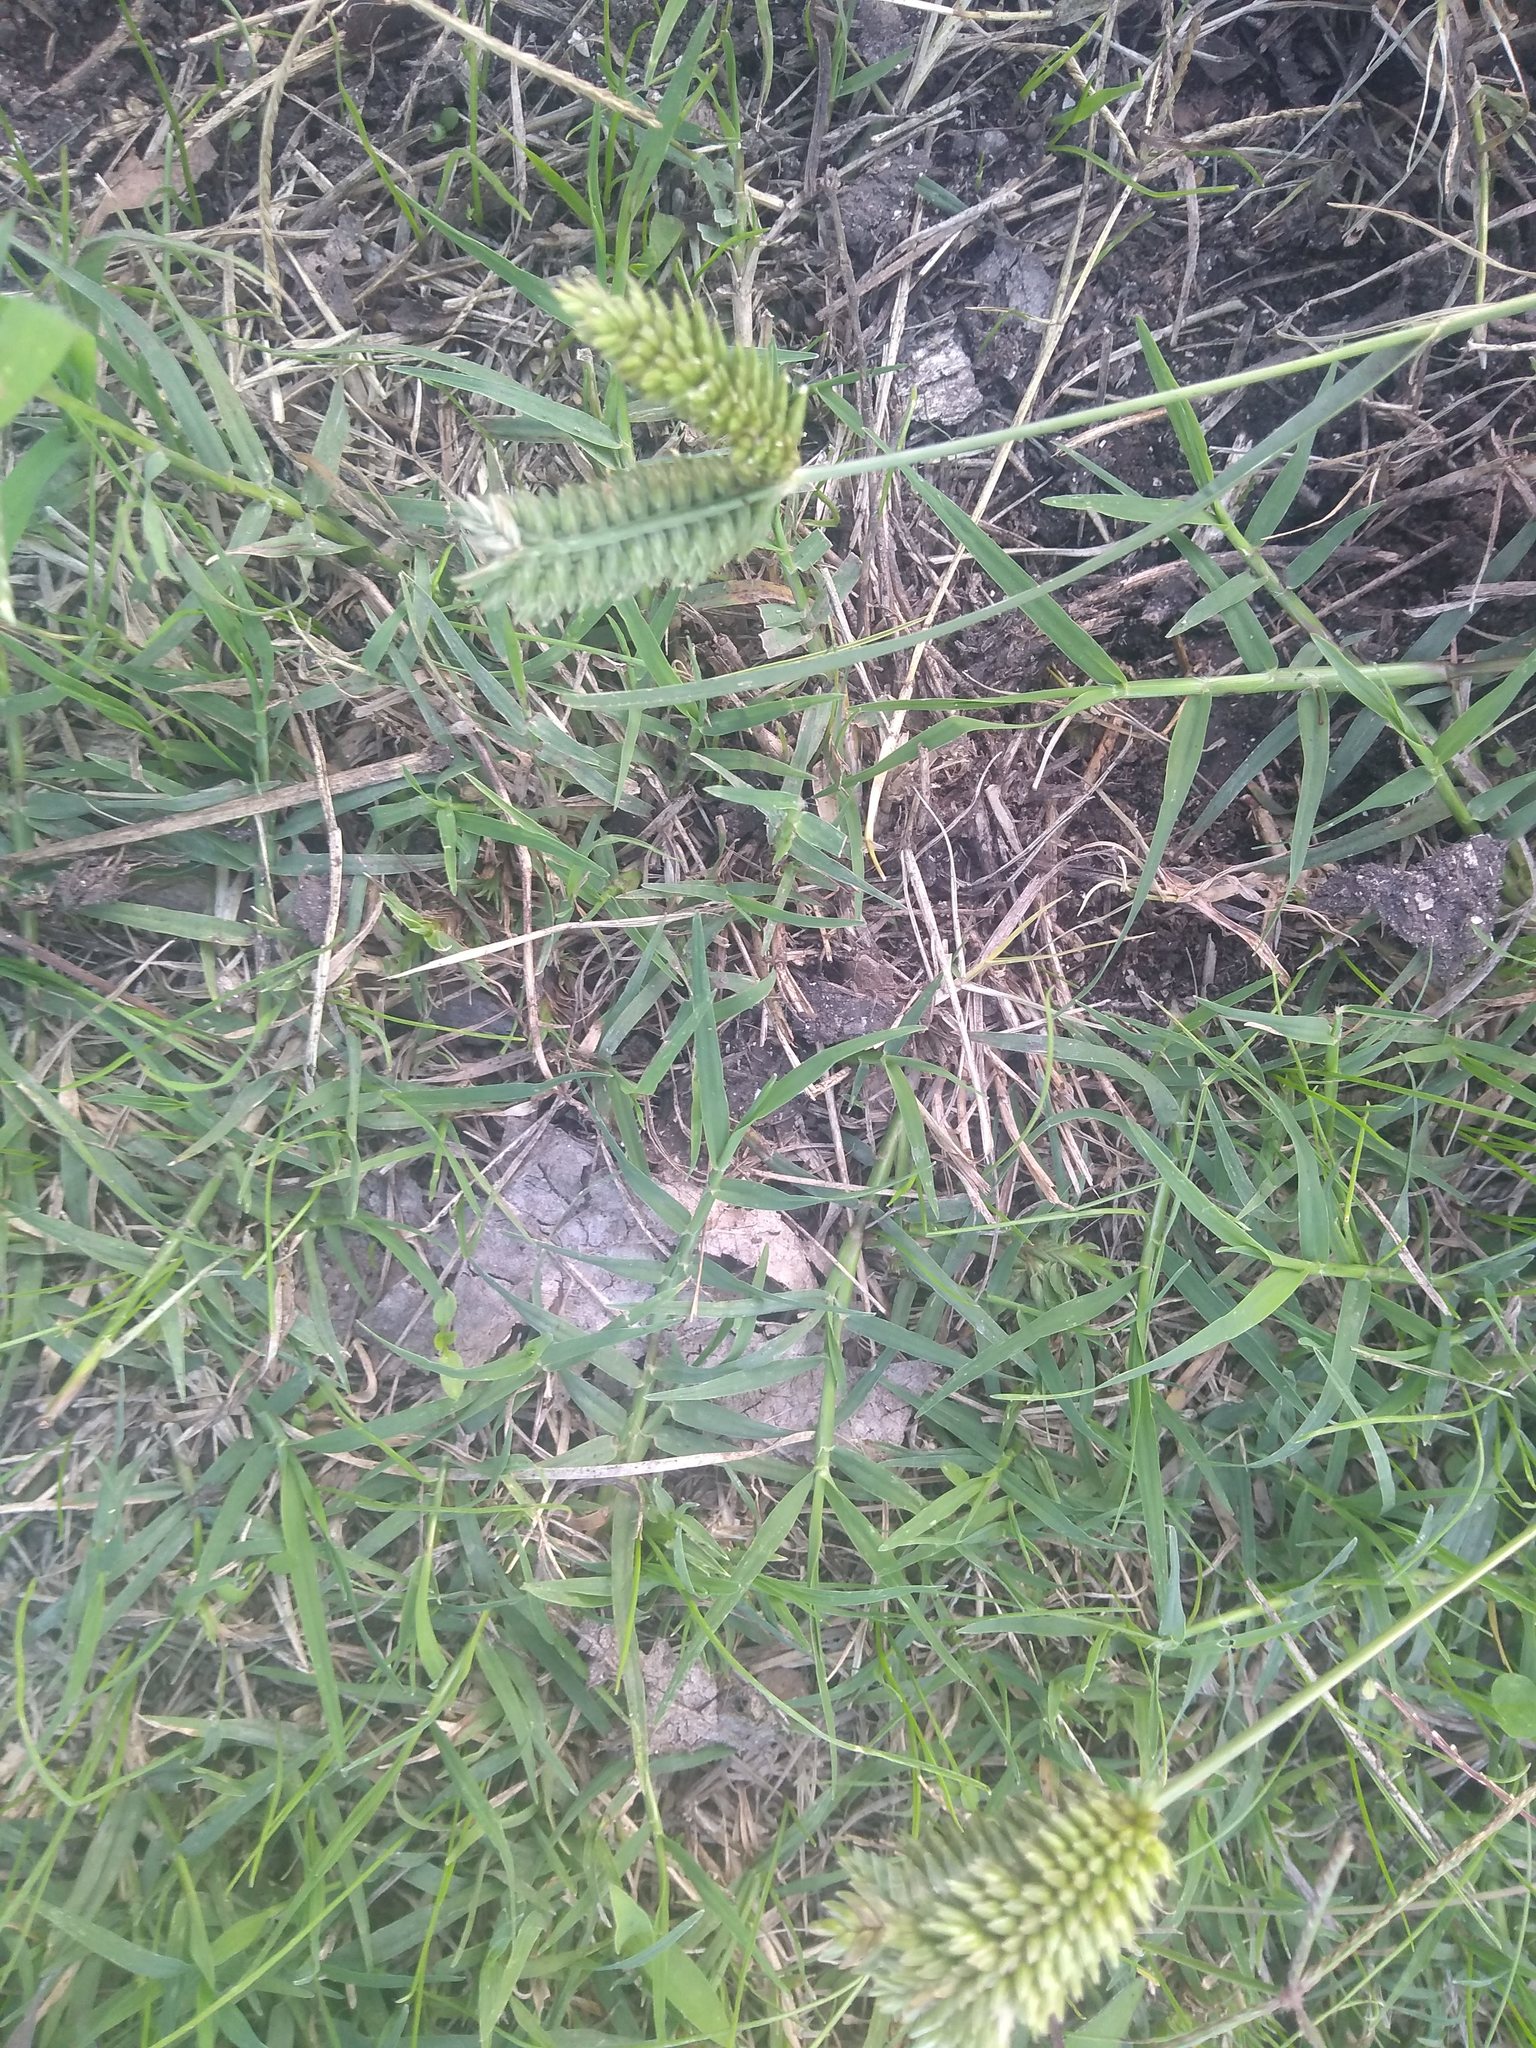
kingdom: Plantae
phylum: Tracheophyta
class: Liliopsida
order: Poales
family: Poaceae
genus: Eleusine
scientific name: Eleusine tristachya
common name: American yard-grass
